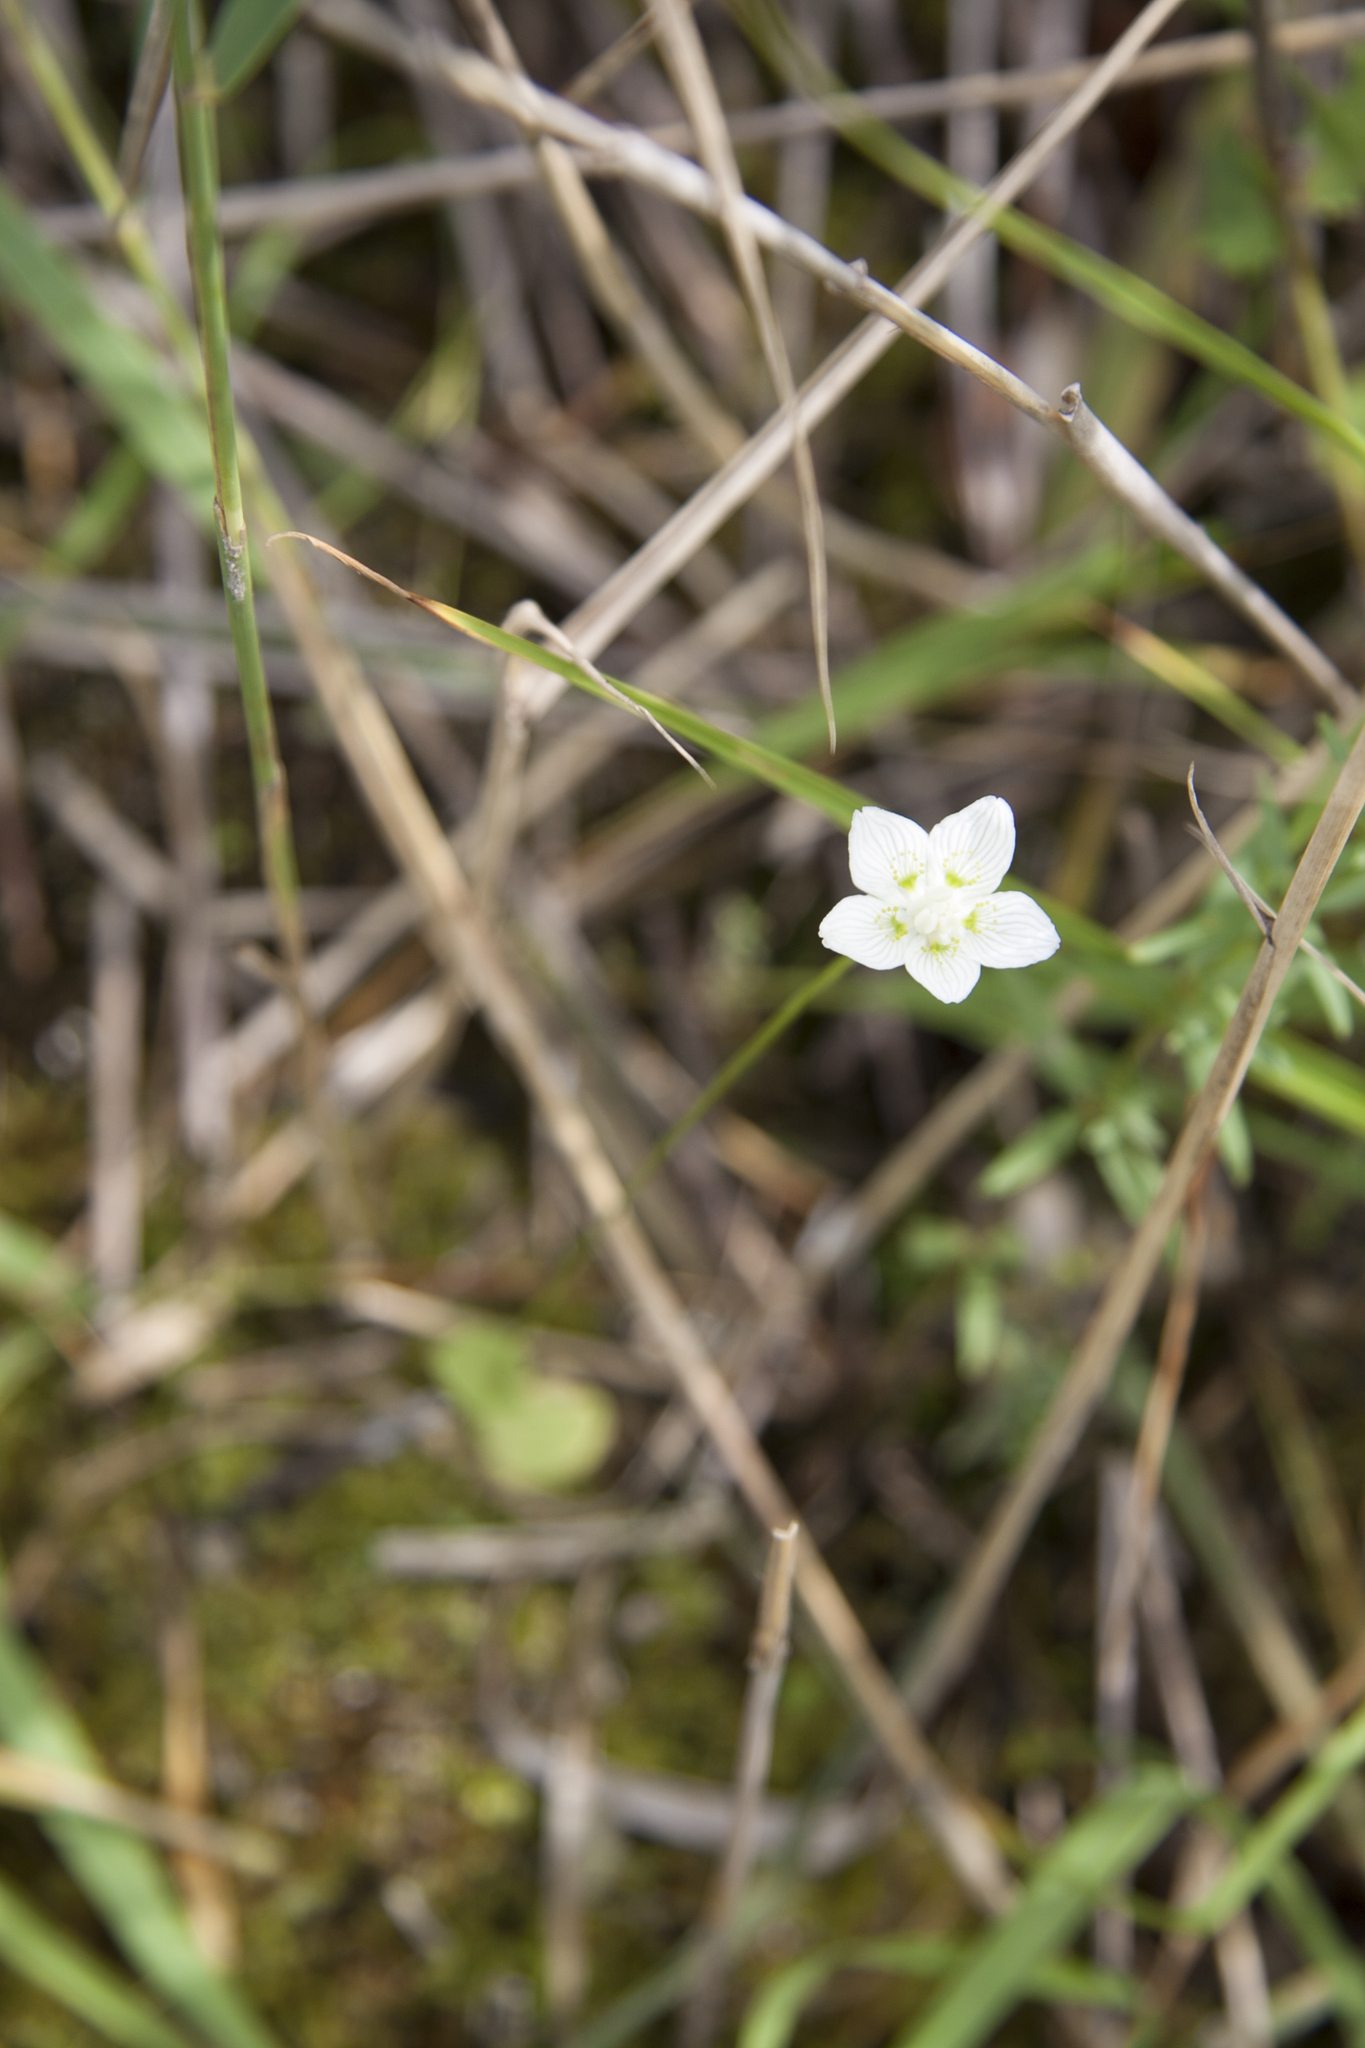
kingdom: Plantae
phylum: Tracheophyta
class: Magnoliopsida
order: Celastrales
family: Parnassiaceae
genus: Parnassia
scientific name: Parnassia palustris
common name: Grass-of-parnassus
